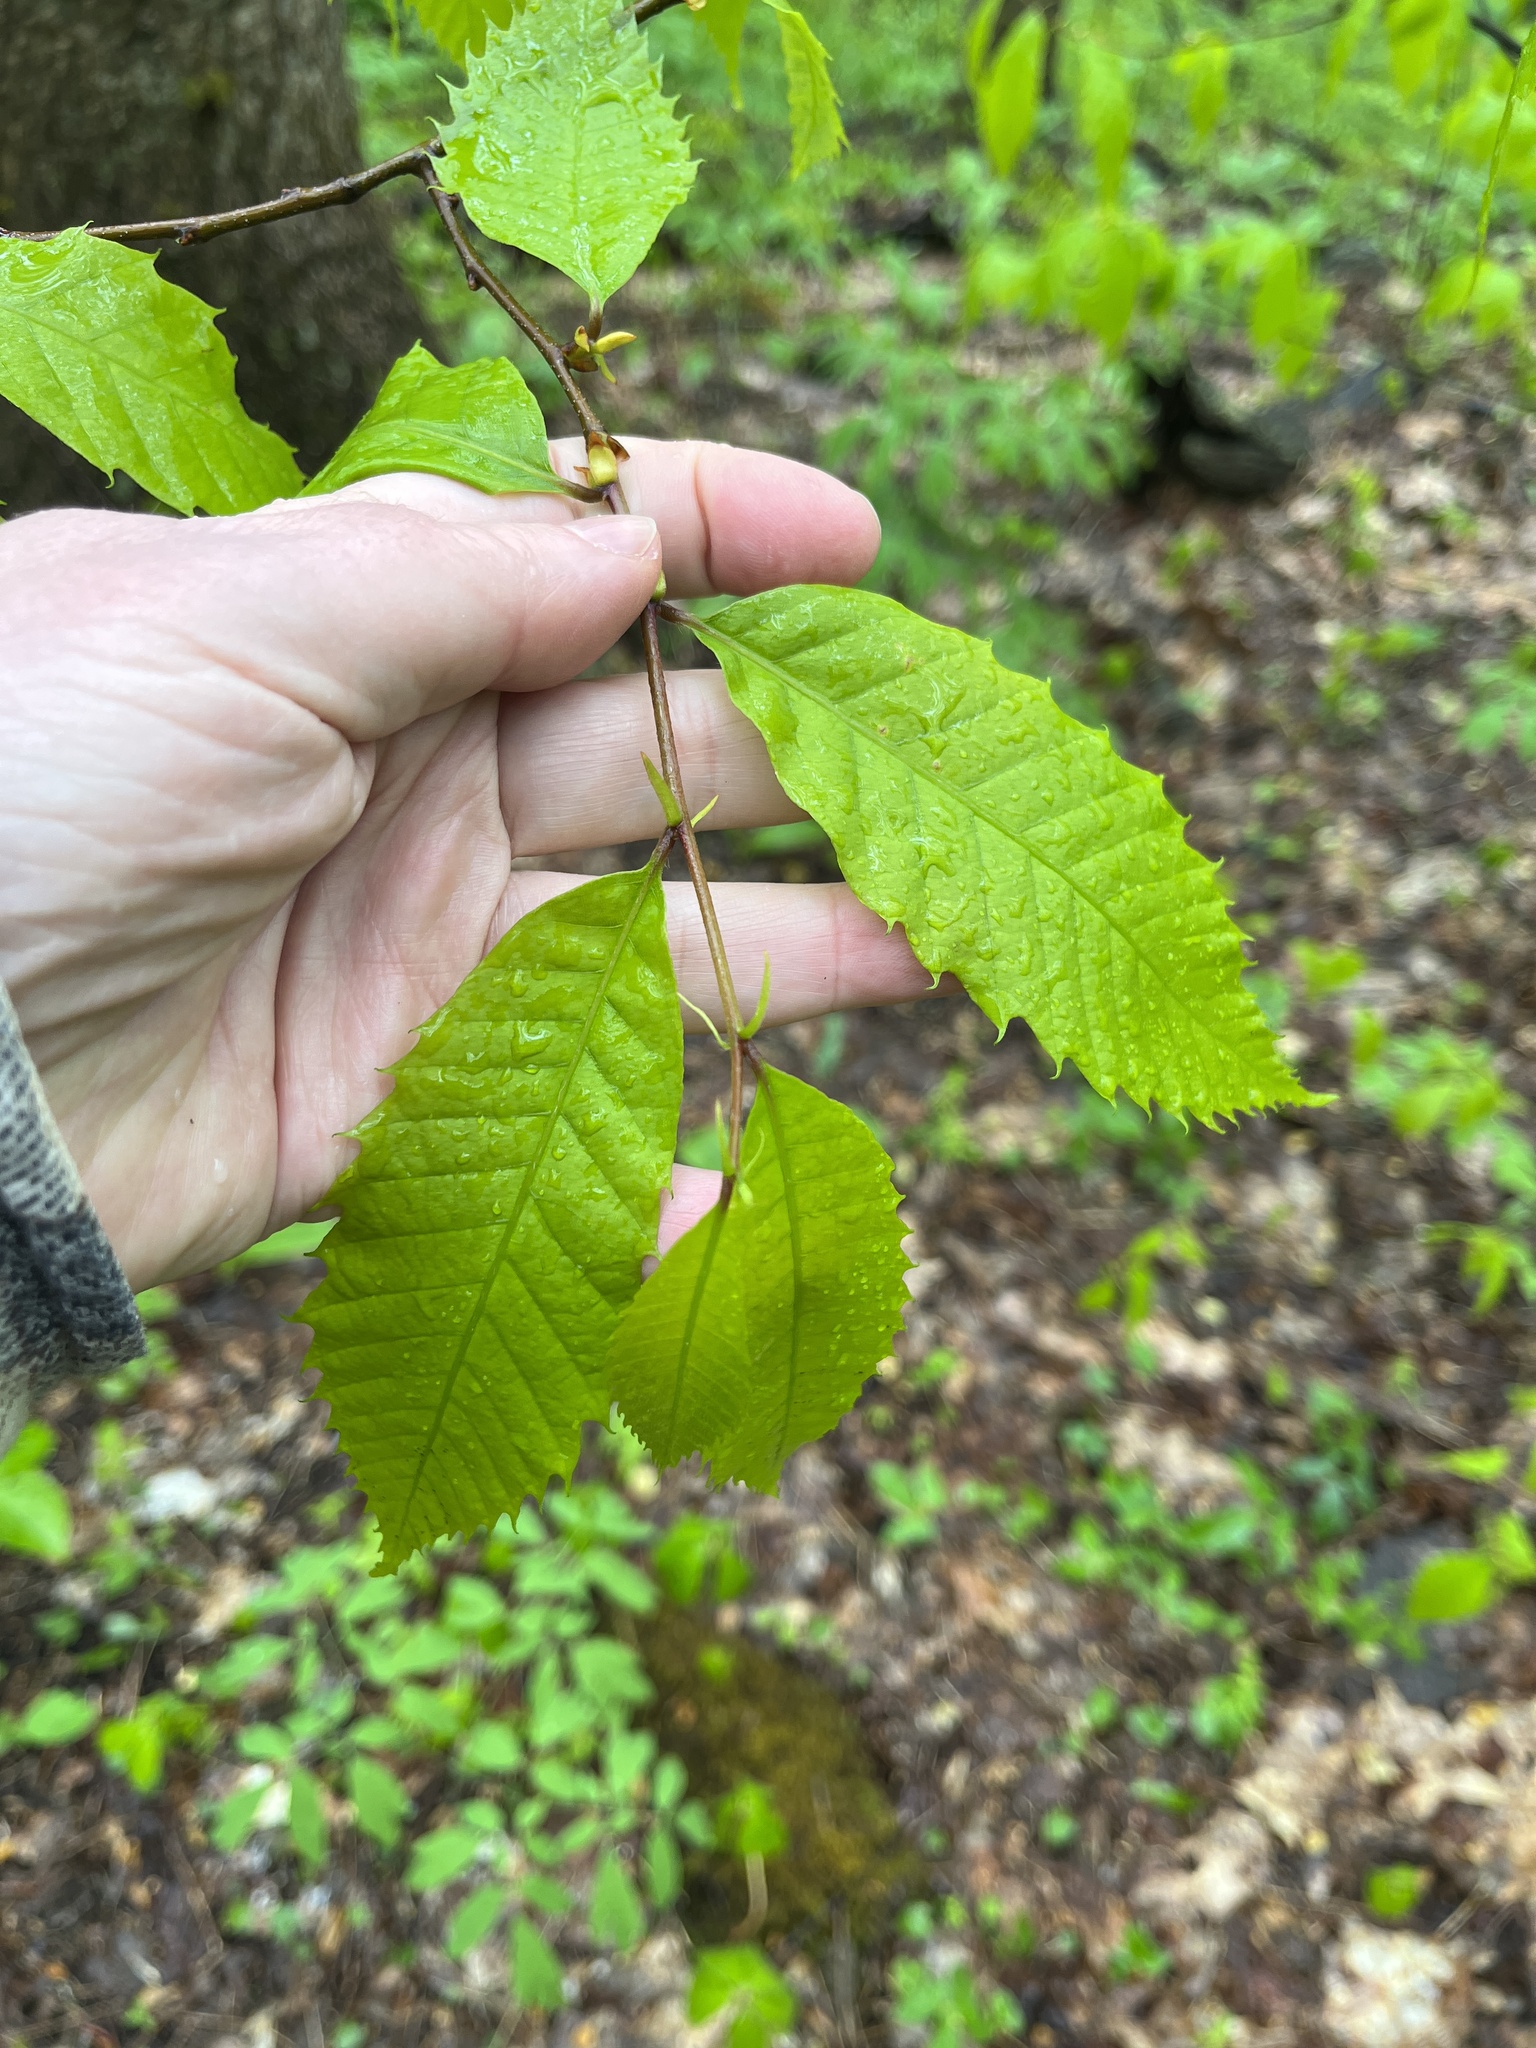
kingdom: Plantae
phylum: Tracheophyta
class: Magnoliopsida
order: Fagales
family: Fagaceae
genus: Castanea
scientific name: Castanea dentata
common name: American chestnut
